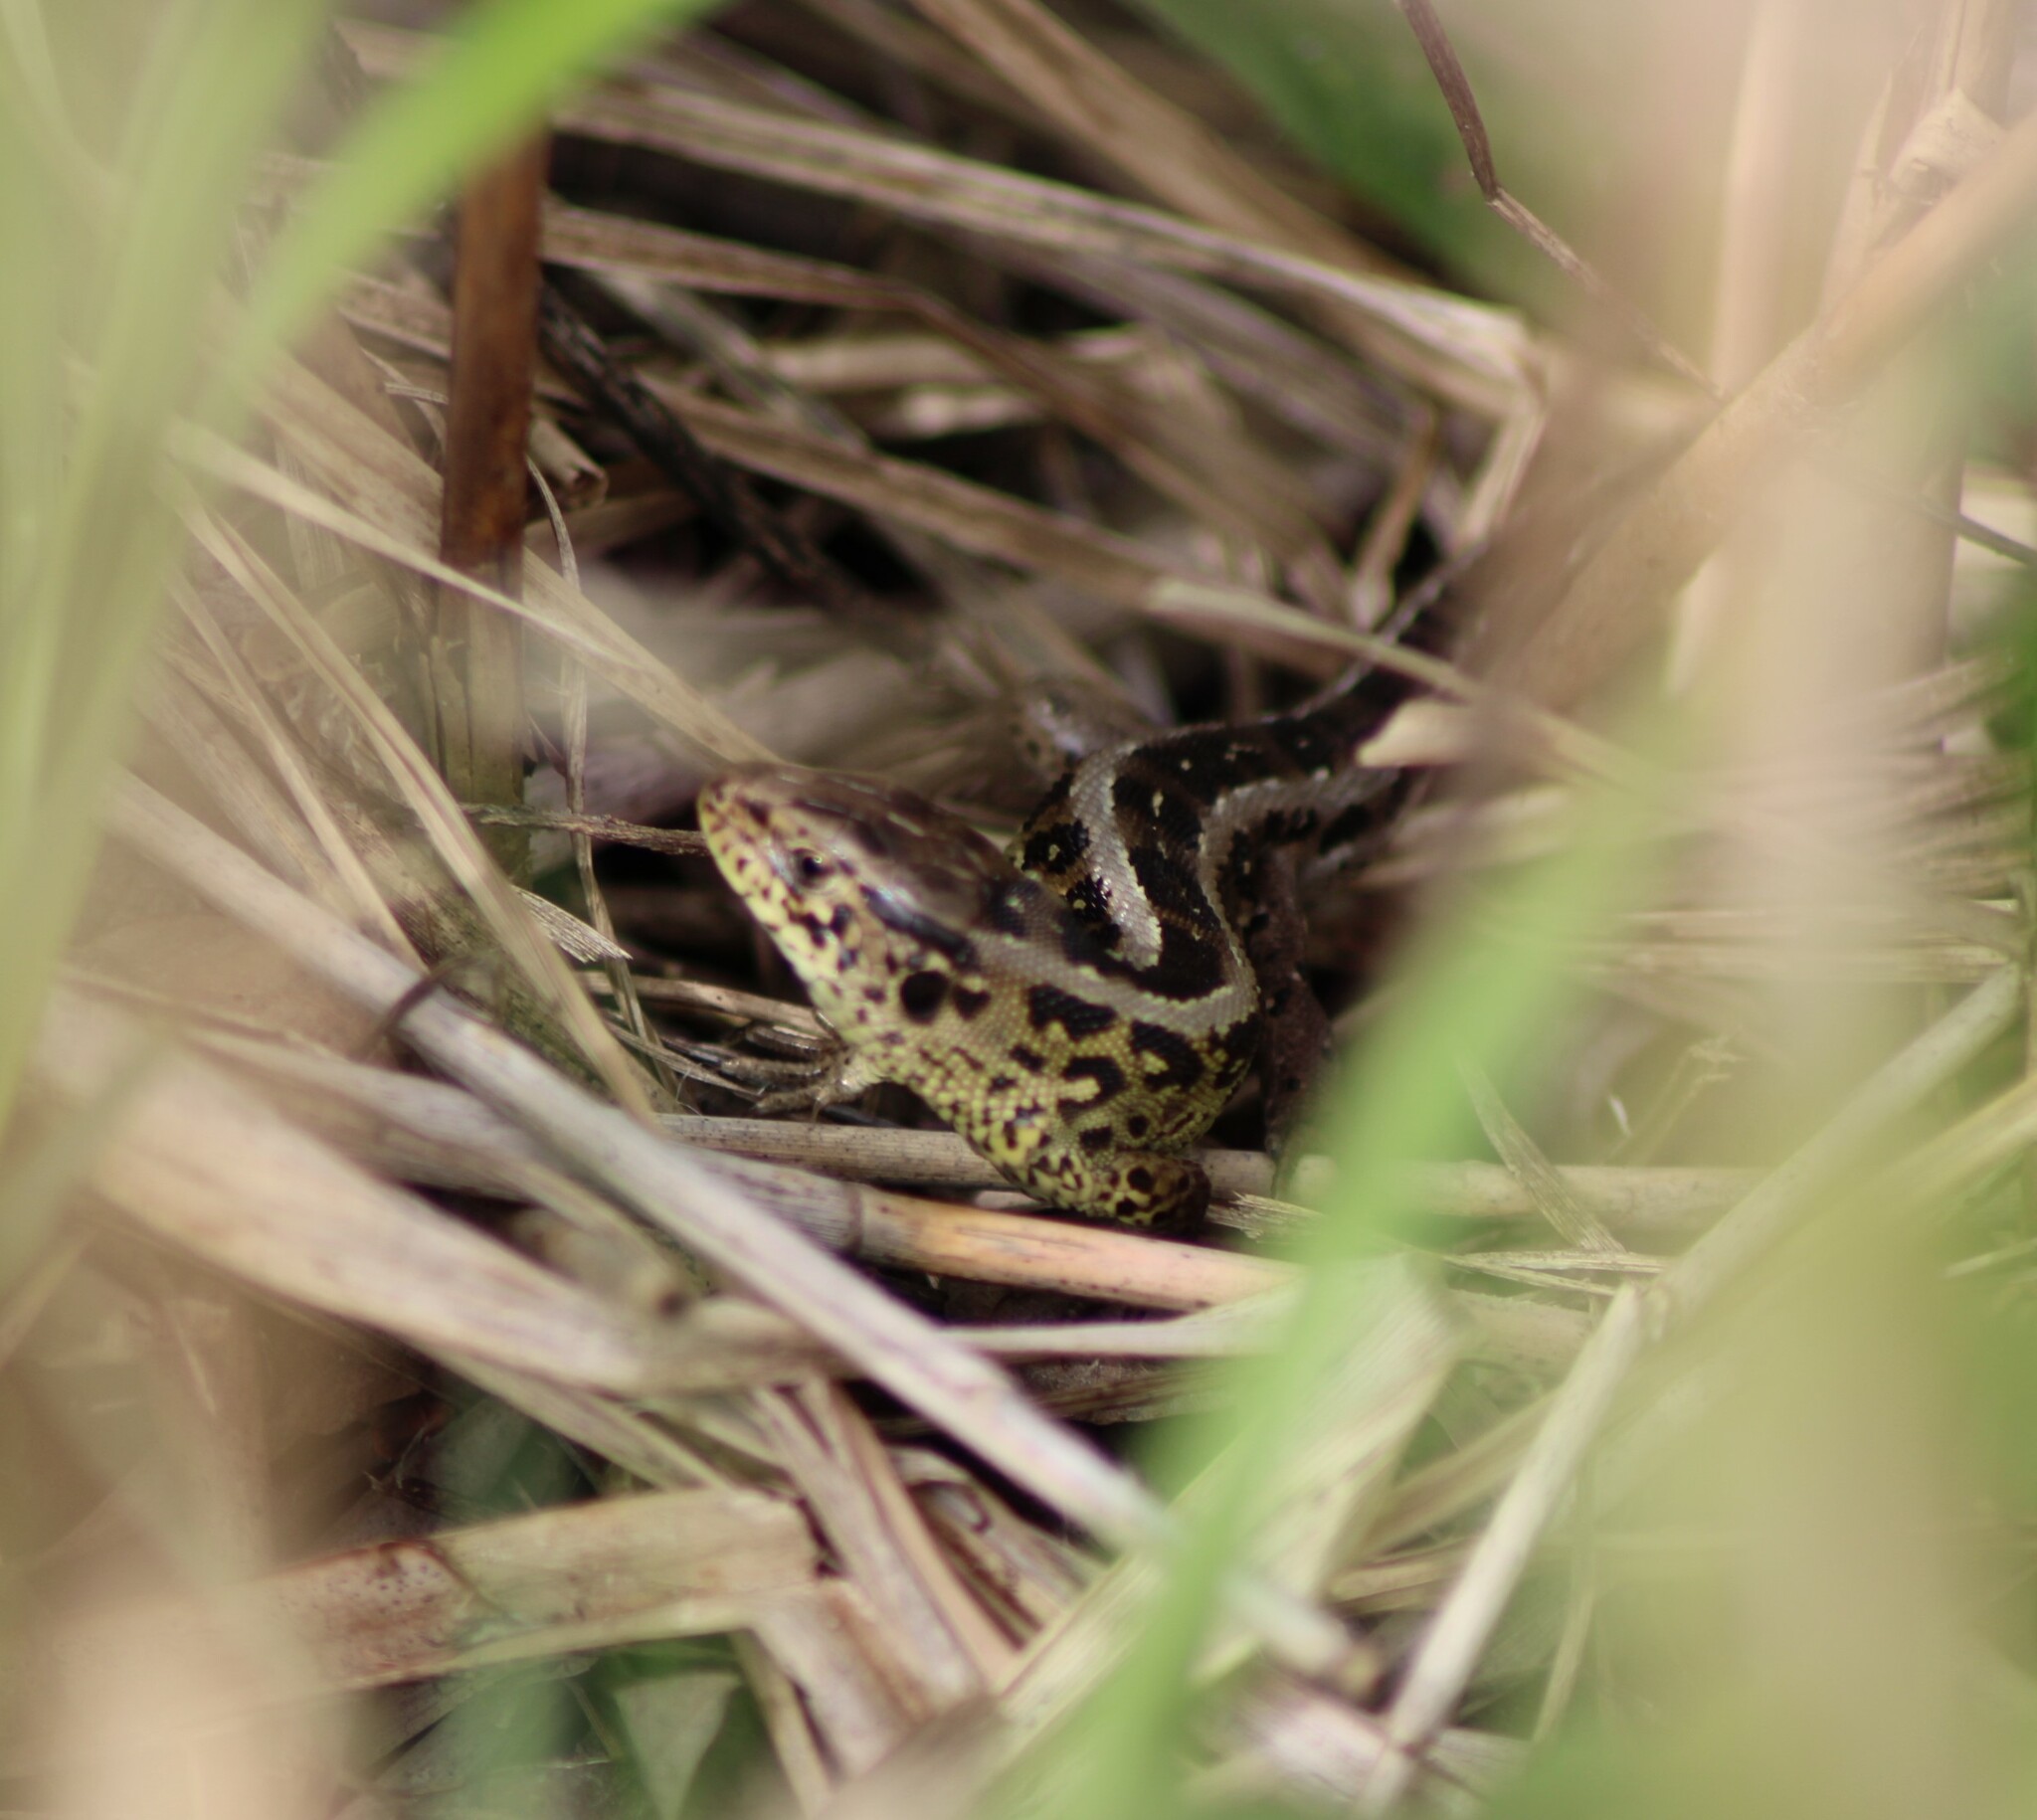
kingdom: Animalia
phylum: Chordata
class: Squamata
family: Lacertidae
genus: Lacerta
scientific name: Lacerta agilis
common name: Sand lizard
